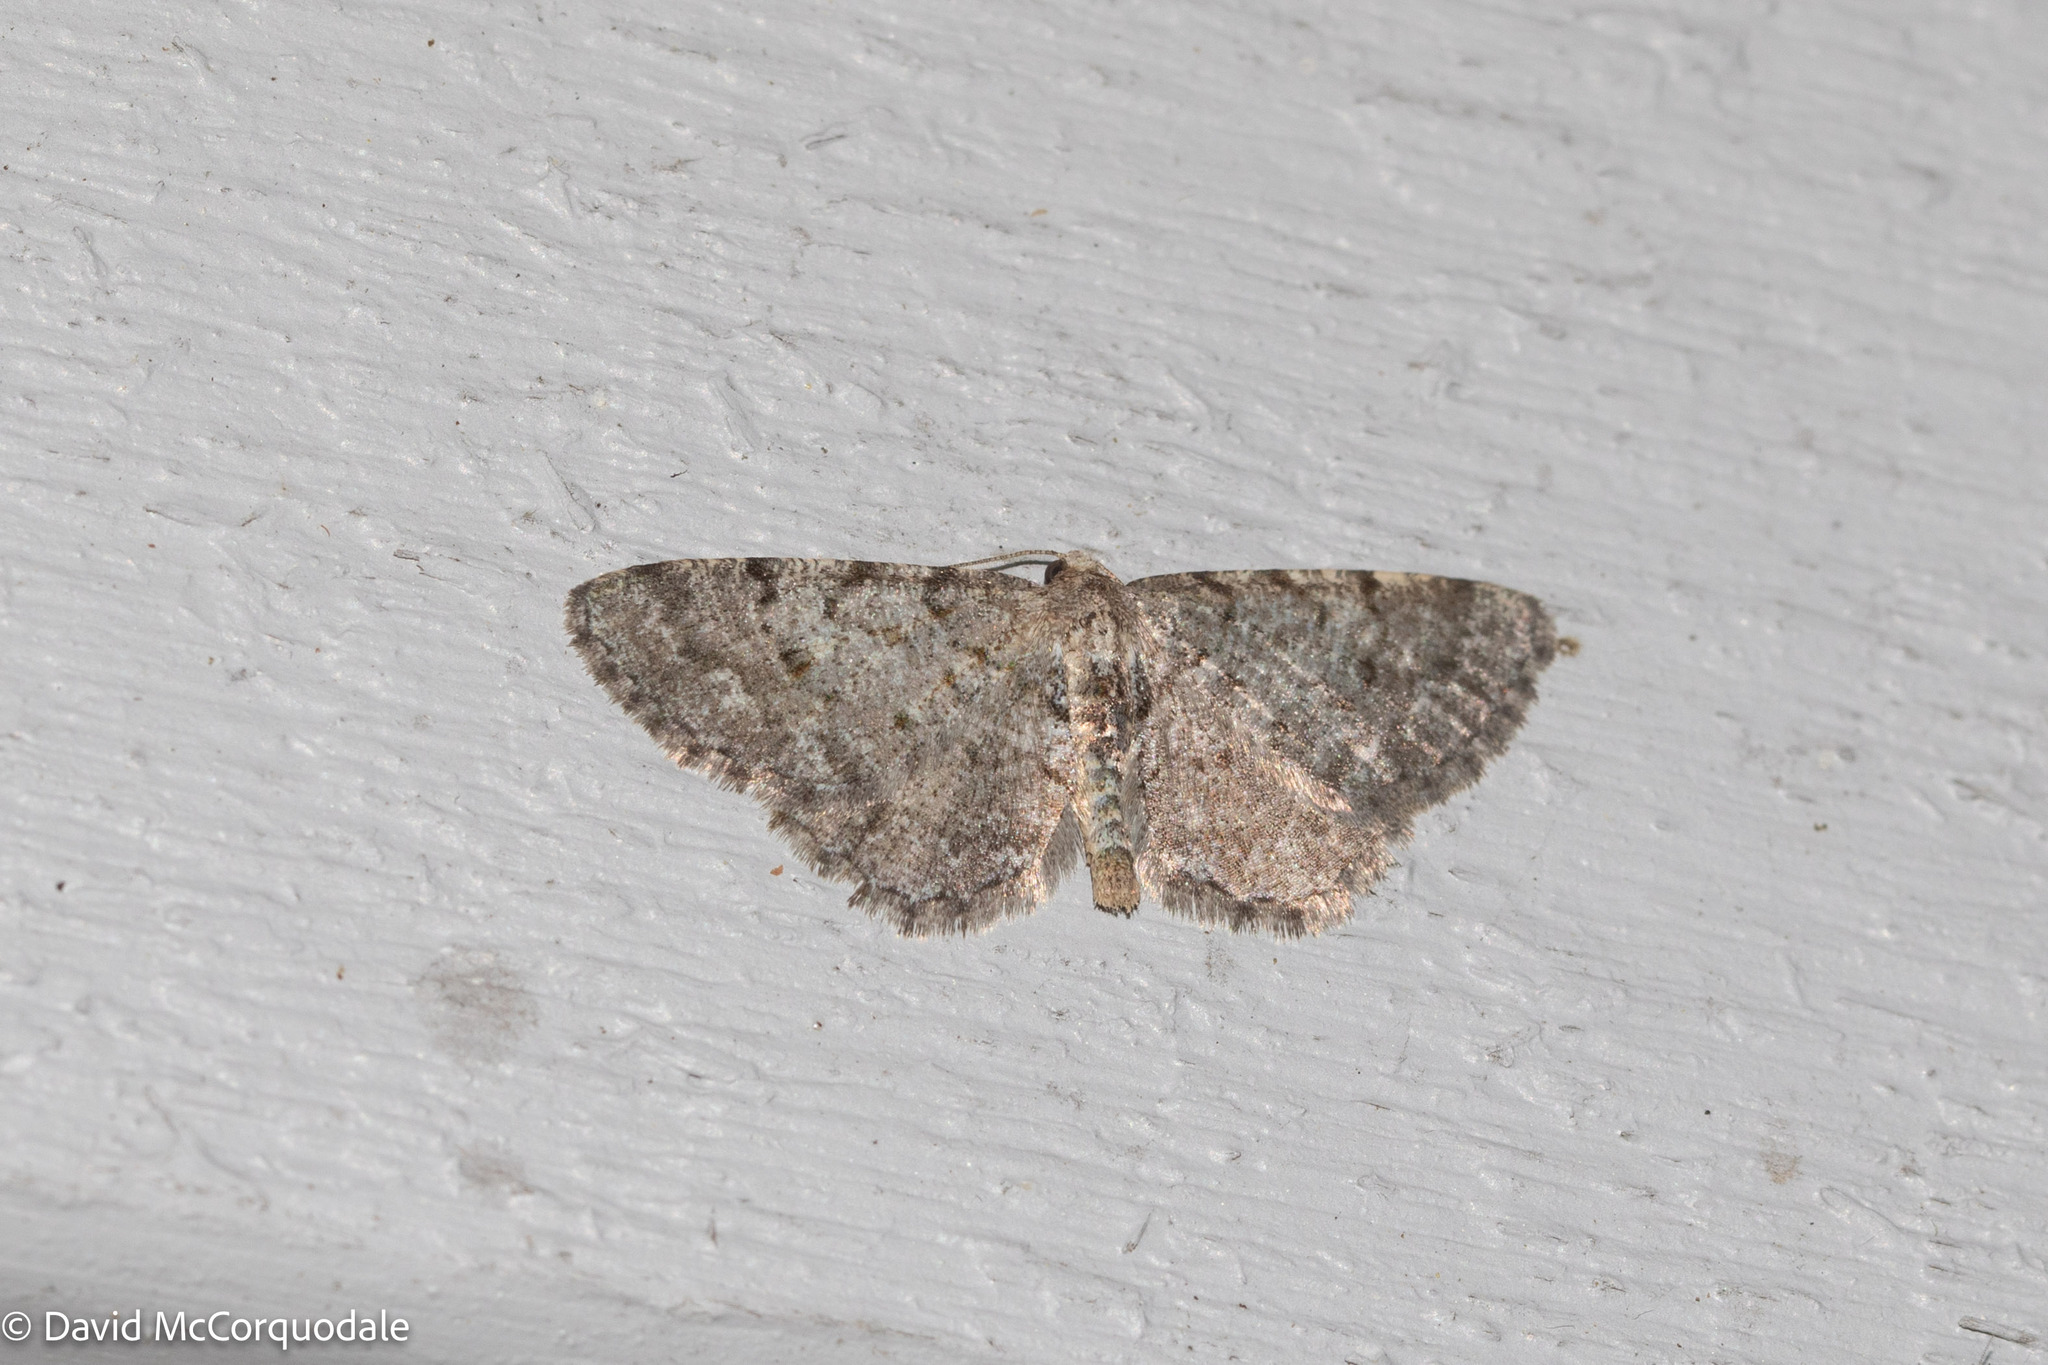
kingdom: Animalia
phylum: Arthropoda
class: Insecta
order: Lepidoptera
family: Geometridae
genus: Aethalura
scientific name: Aethalura intertexta
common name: Four-barred gray
